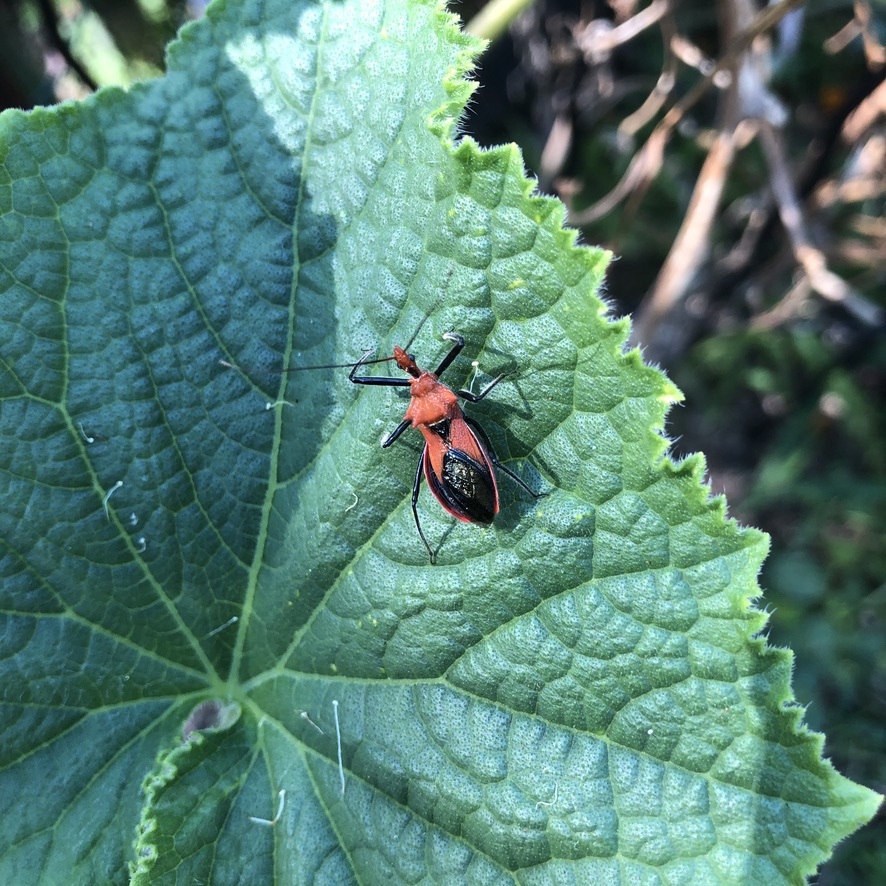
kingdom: Animalia
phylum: Arthropoda
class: Insecta
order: Hemiptera
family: Reduviidae
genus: Gminatus
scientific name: Gminatus australis
